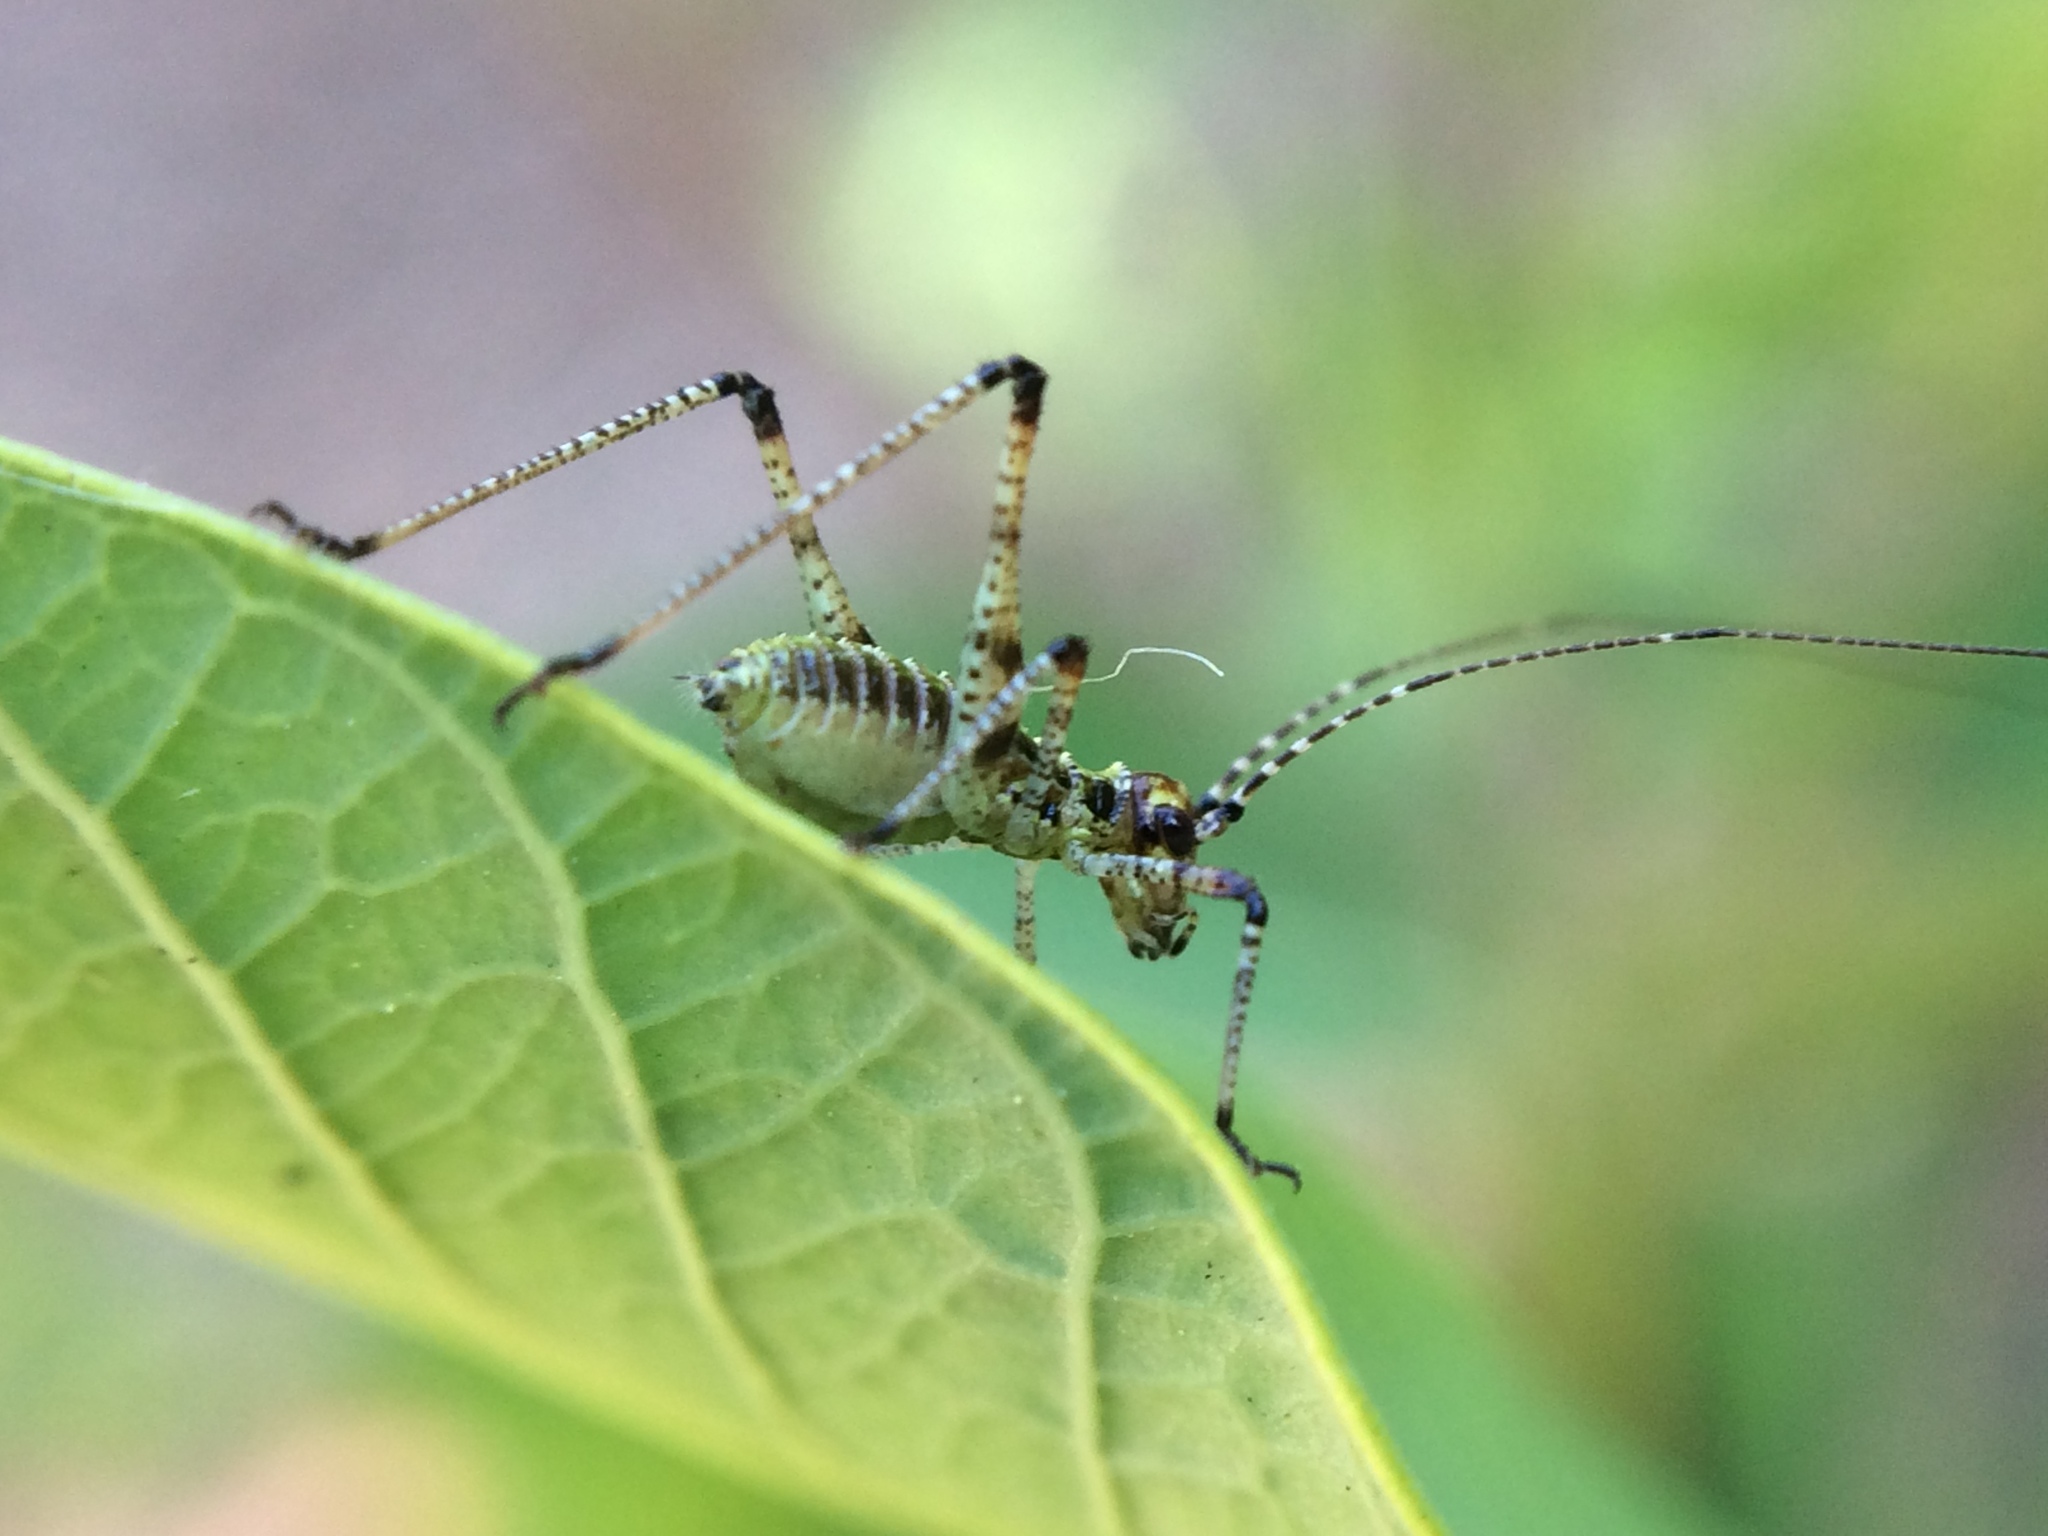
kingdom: Animalia
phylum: Arthropoda
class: Insecta
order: Orthoptera
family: Tettigoniidae
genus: Phaneroptera
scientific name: Phaneroptera nana
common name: Southern sickle bush-cricket
